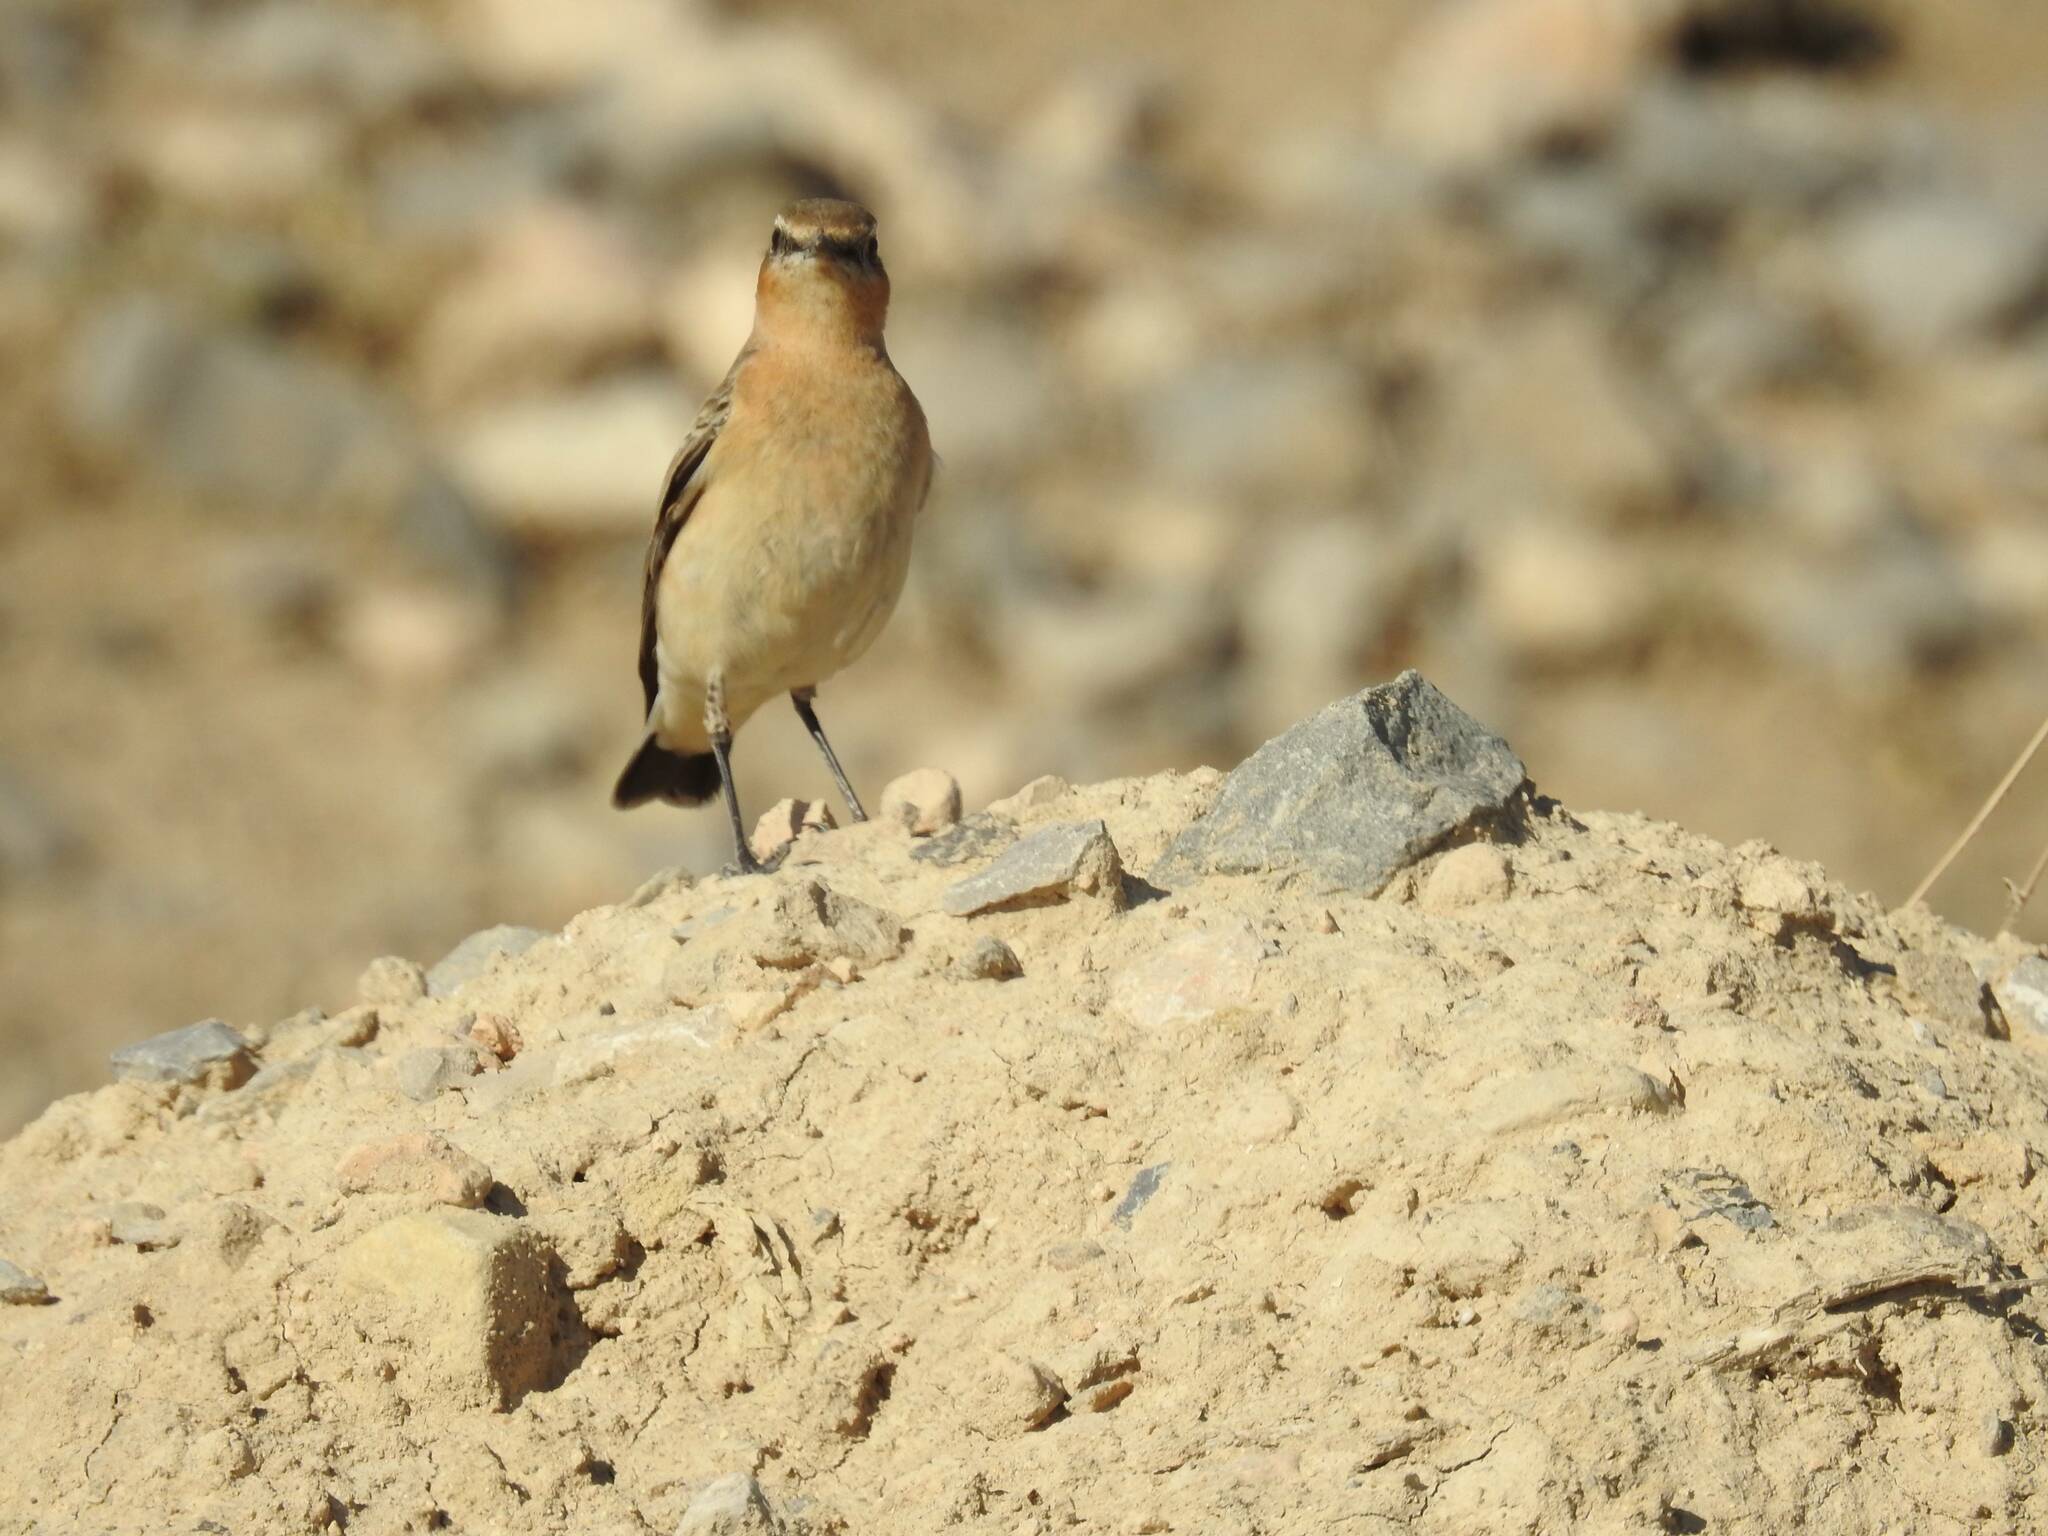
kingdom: Animalia
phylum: Chordata
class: Aves
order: Passeriformes
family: Muscicapidae
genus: Oenanthe
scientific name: Oenanthe oenanthe
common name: Northern wheatear
